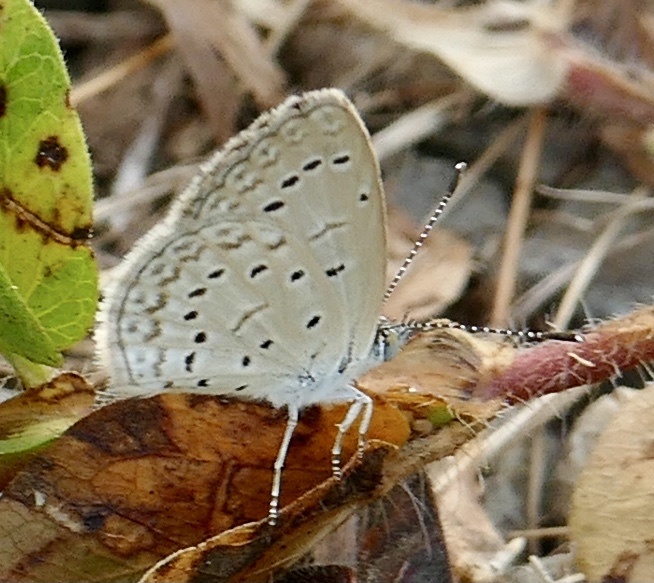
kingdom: Animalia
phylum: Arthropoda
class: Insecta
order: Lepidoptera
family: Lycaenidae
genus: Zizeeria
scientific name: Zizeeria knysna
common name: African grass blue
